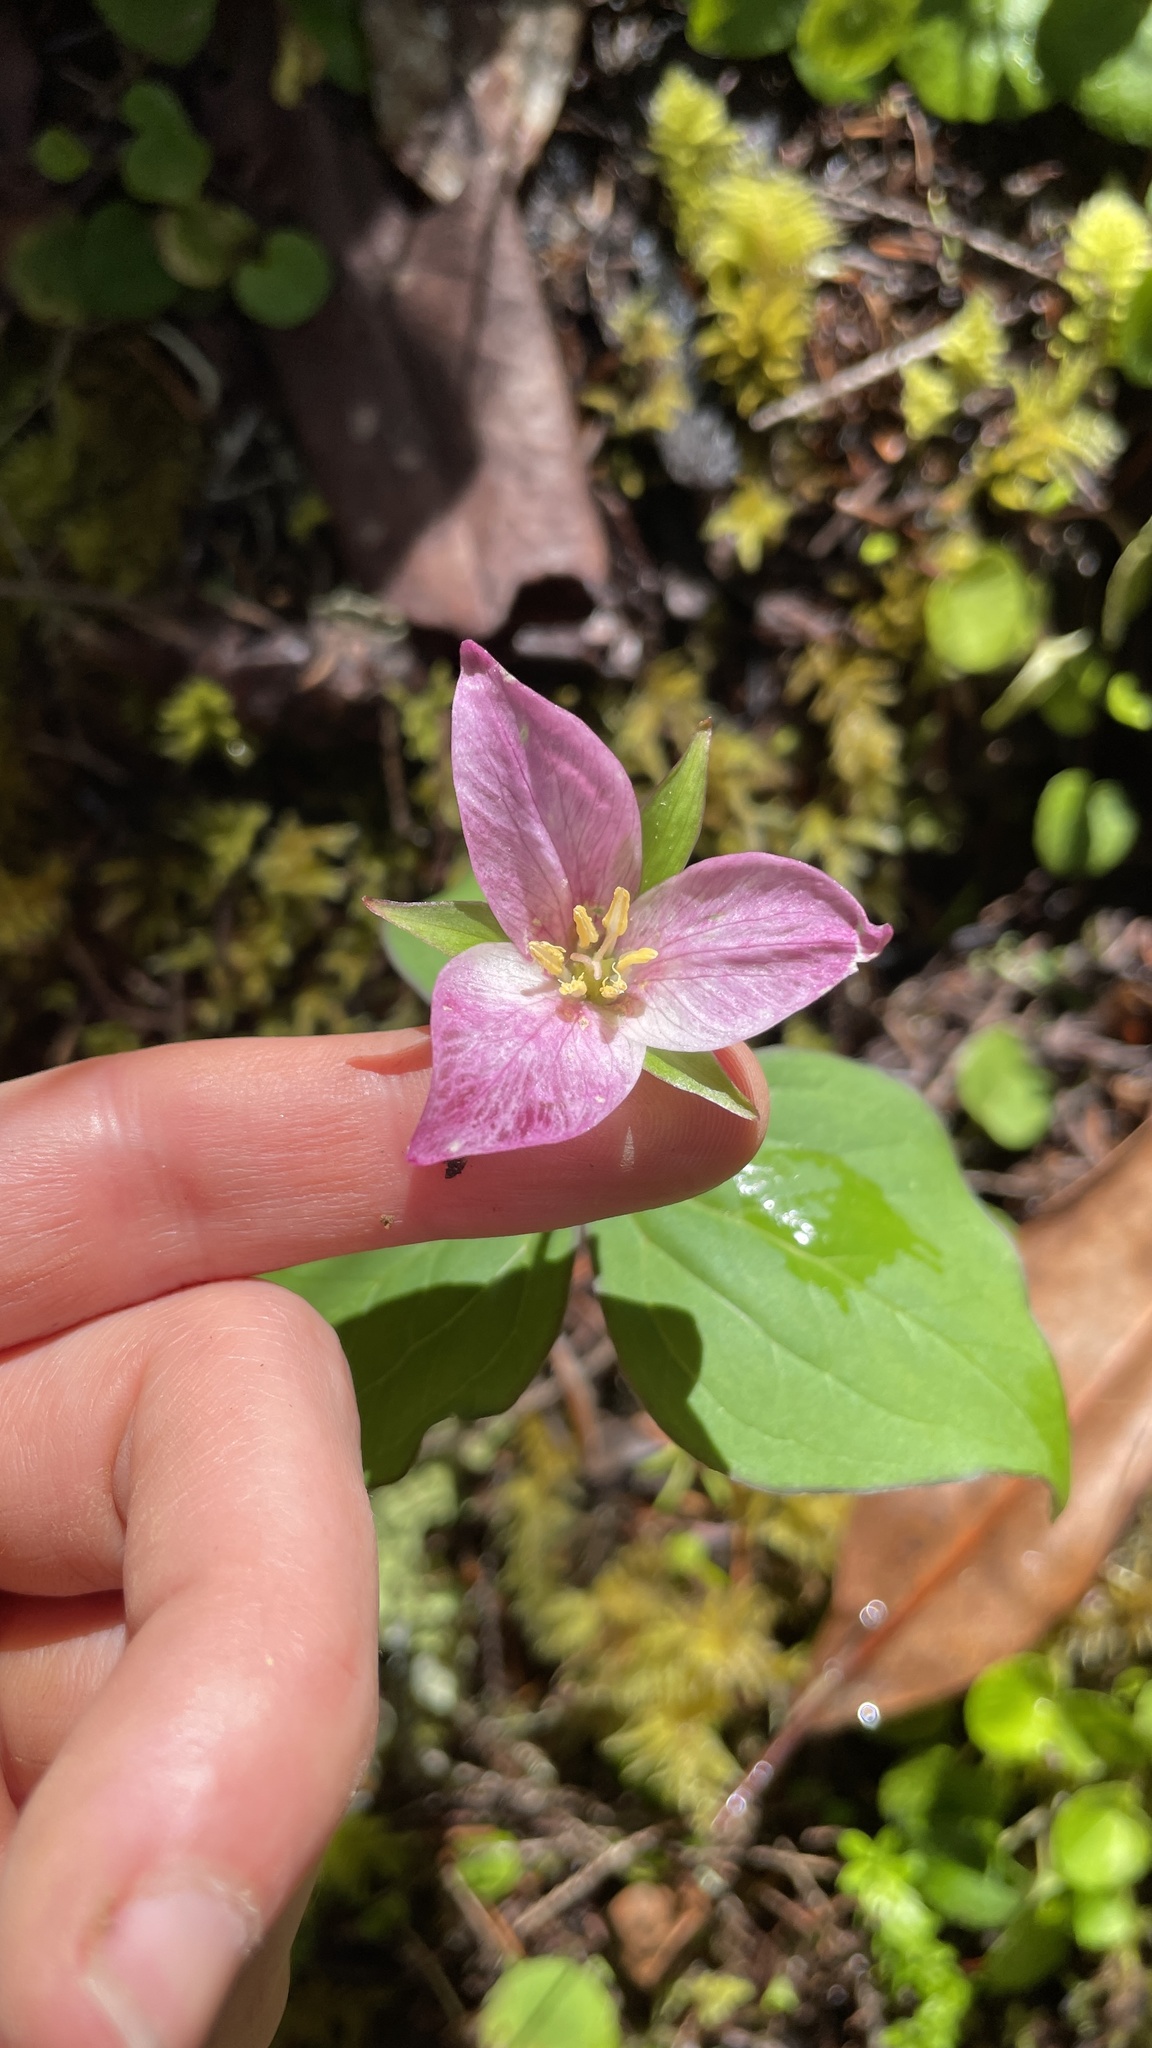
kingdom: Plantae
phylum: Tracheophyta
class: Liliopsida
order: Liliales
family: Melanthiaceae
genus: Trillium
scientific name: Trillium ovatum
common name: Pacific trillium
